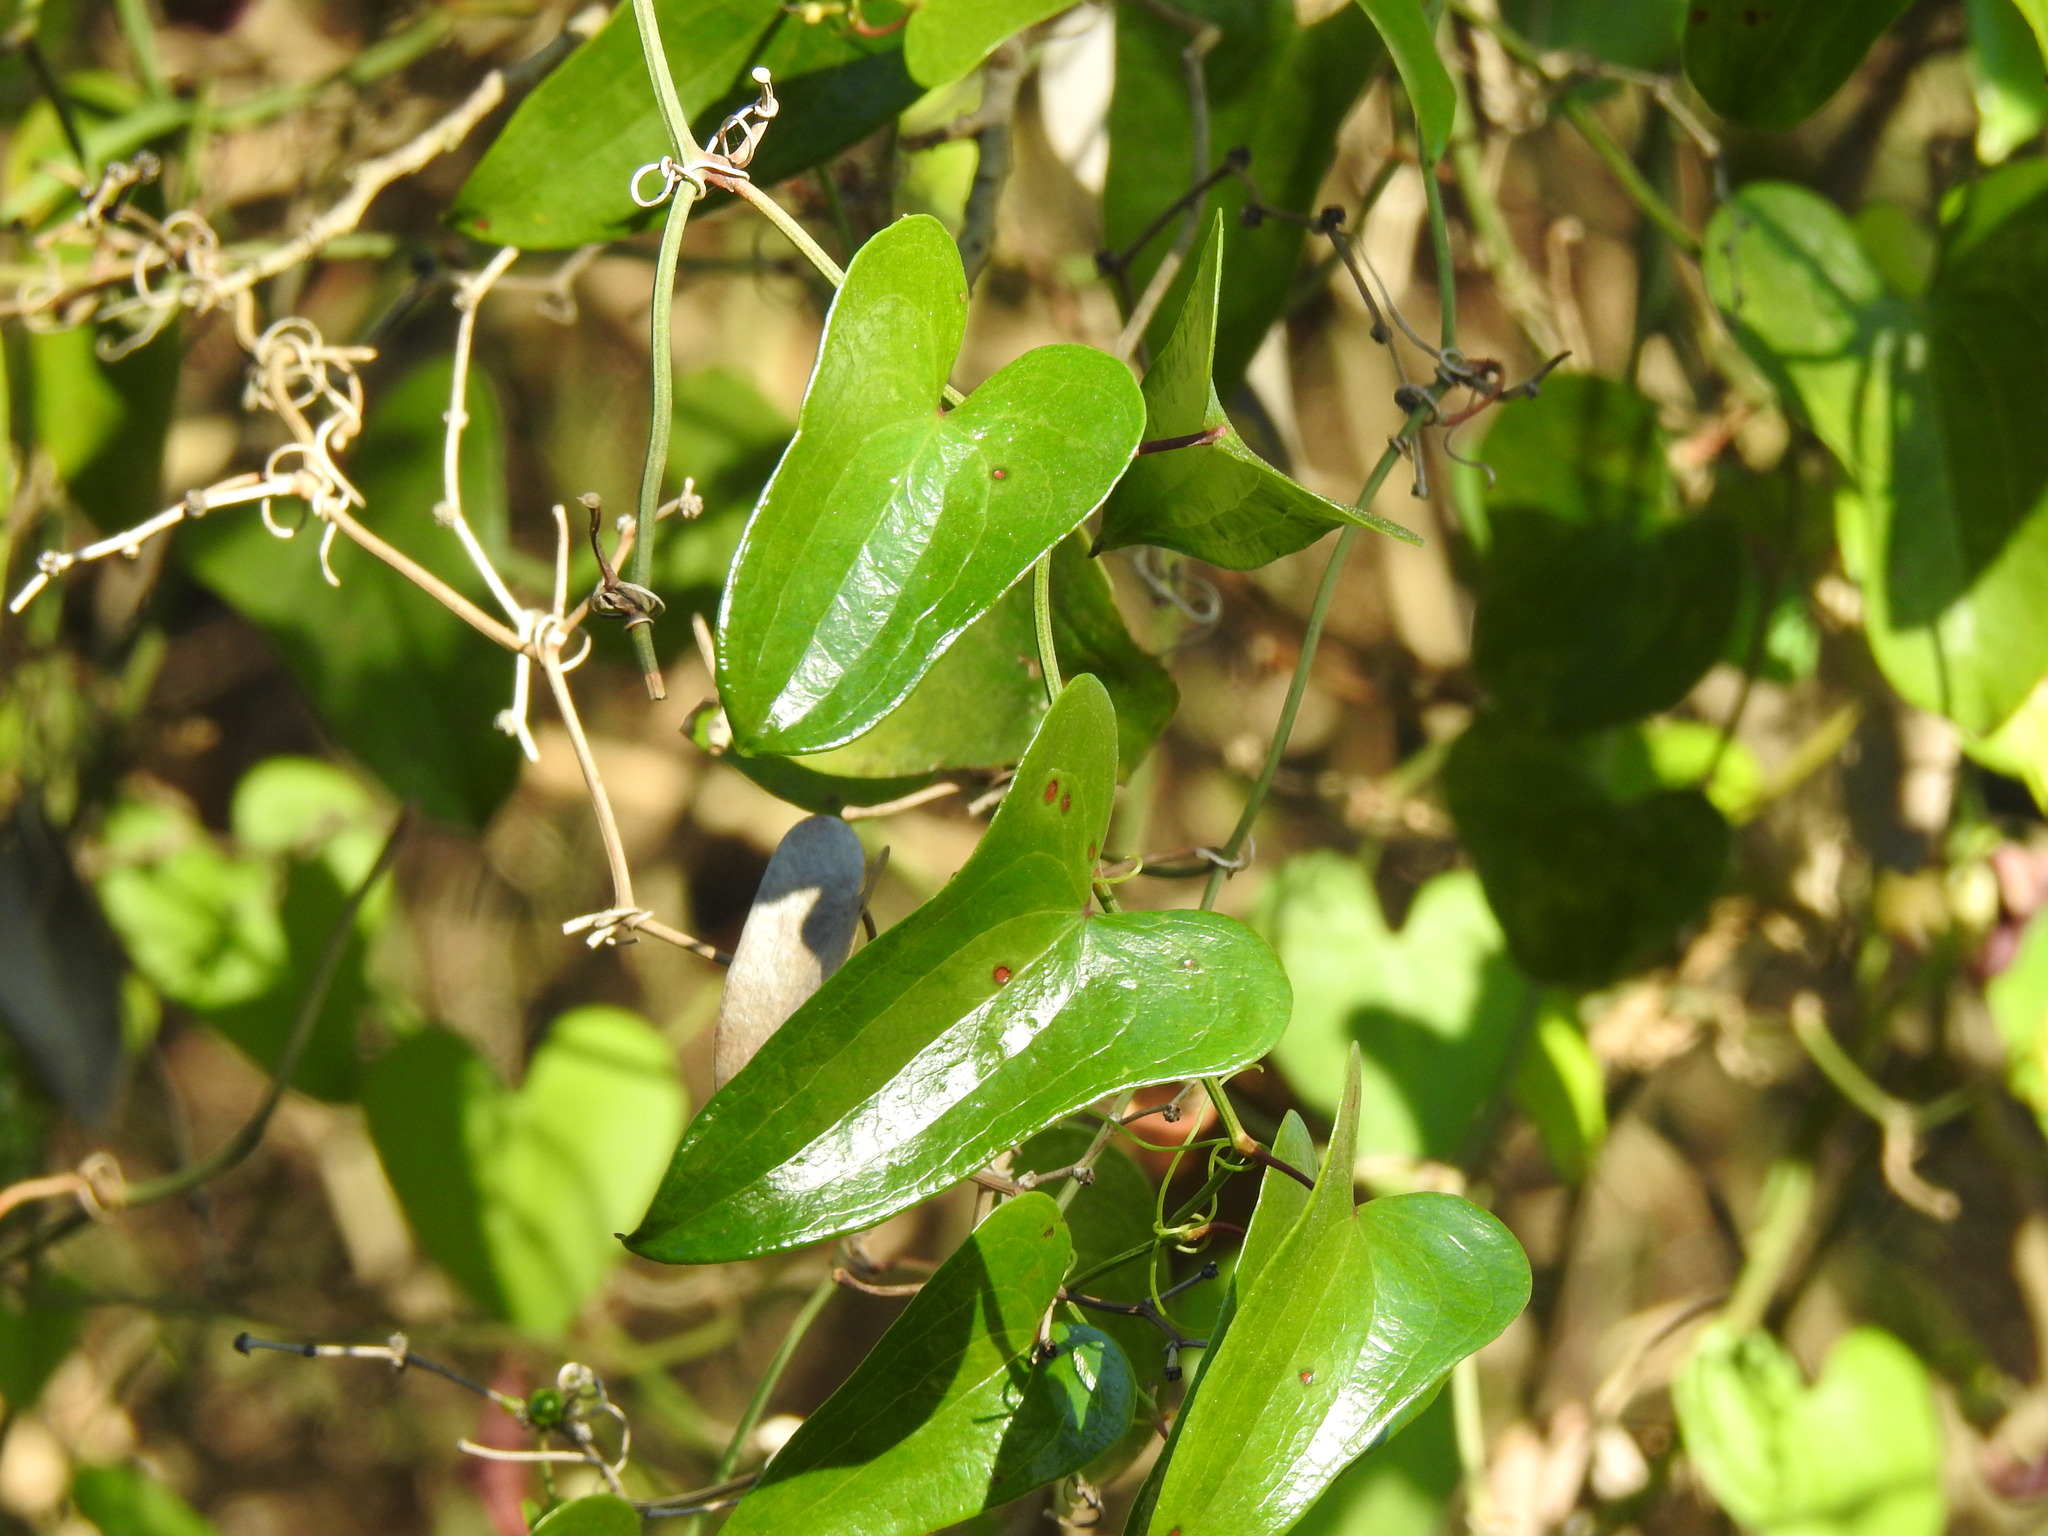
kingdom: Plantae
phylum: Tracheophyta
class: Liliopsida
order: Liliales
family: Smilacaceae
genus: Smilax
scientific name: Smilax aspera
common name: Common smilax
